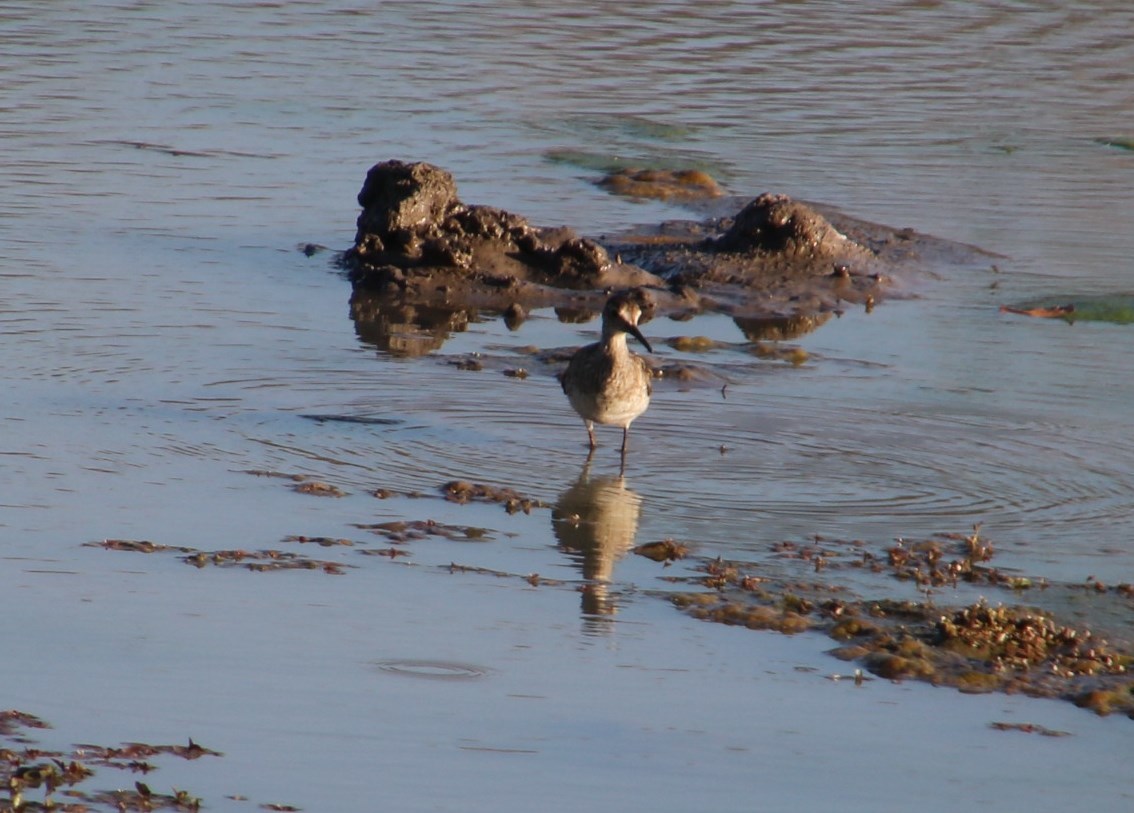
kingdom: Animalia
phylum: Chordata
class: Aves
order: Charadriiformes
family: Scolopacidae
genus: Tringa
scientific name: Tringa glareola
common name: Wood sandpiper
